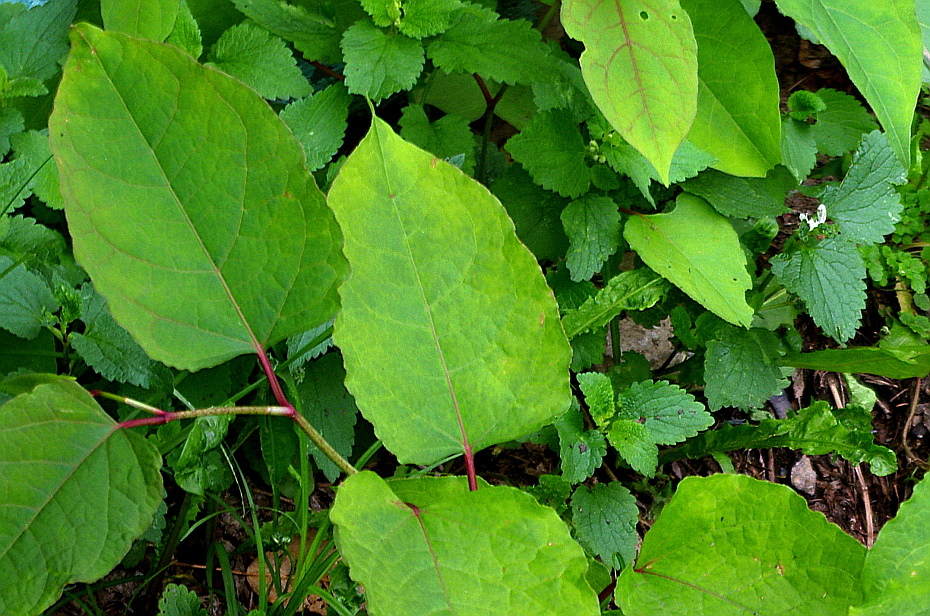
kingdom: Plantae
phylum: Tracheophyta
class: Magnoliopsida
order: Caryophyllales
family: Polygonaceae
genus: Reynoutria
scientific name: Reynoutria bohemica
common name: Bohemian knotweed
